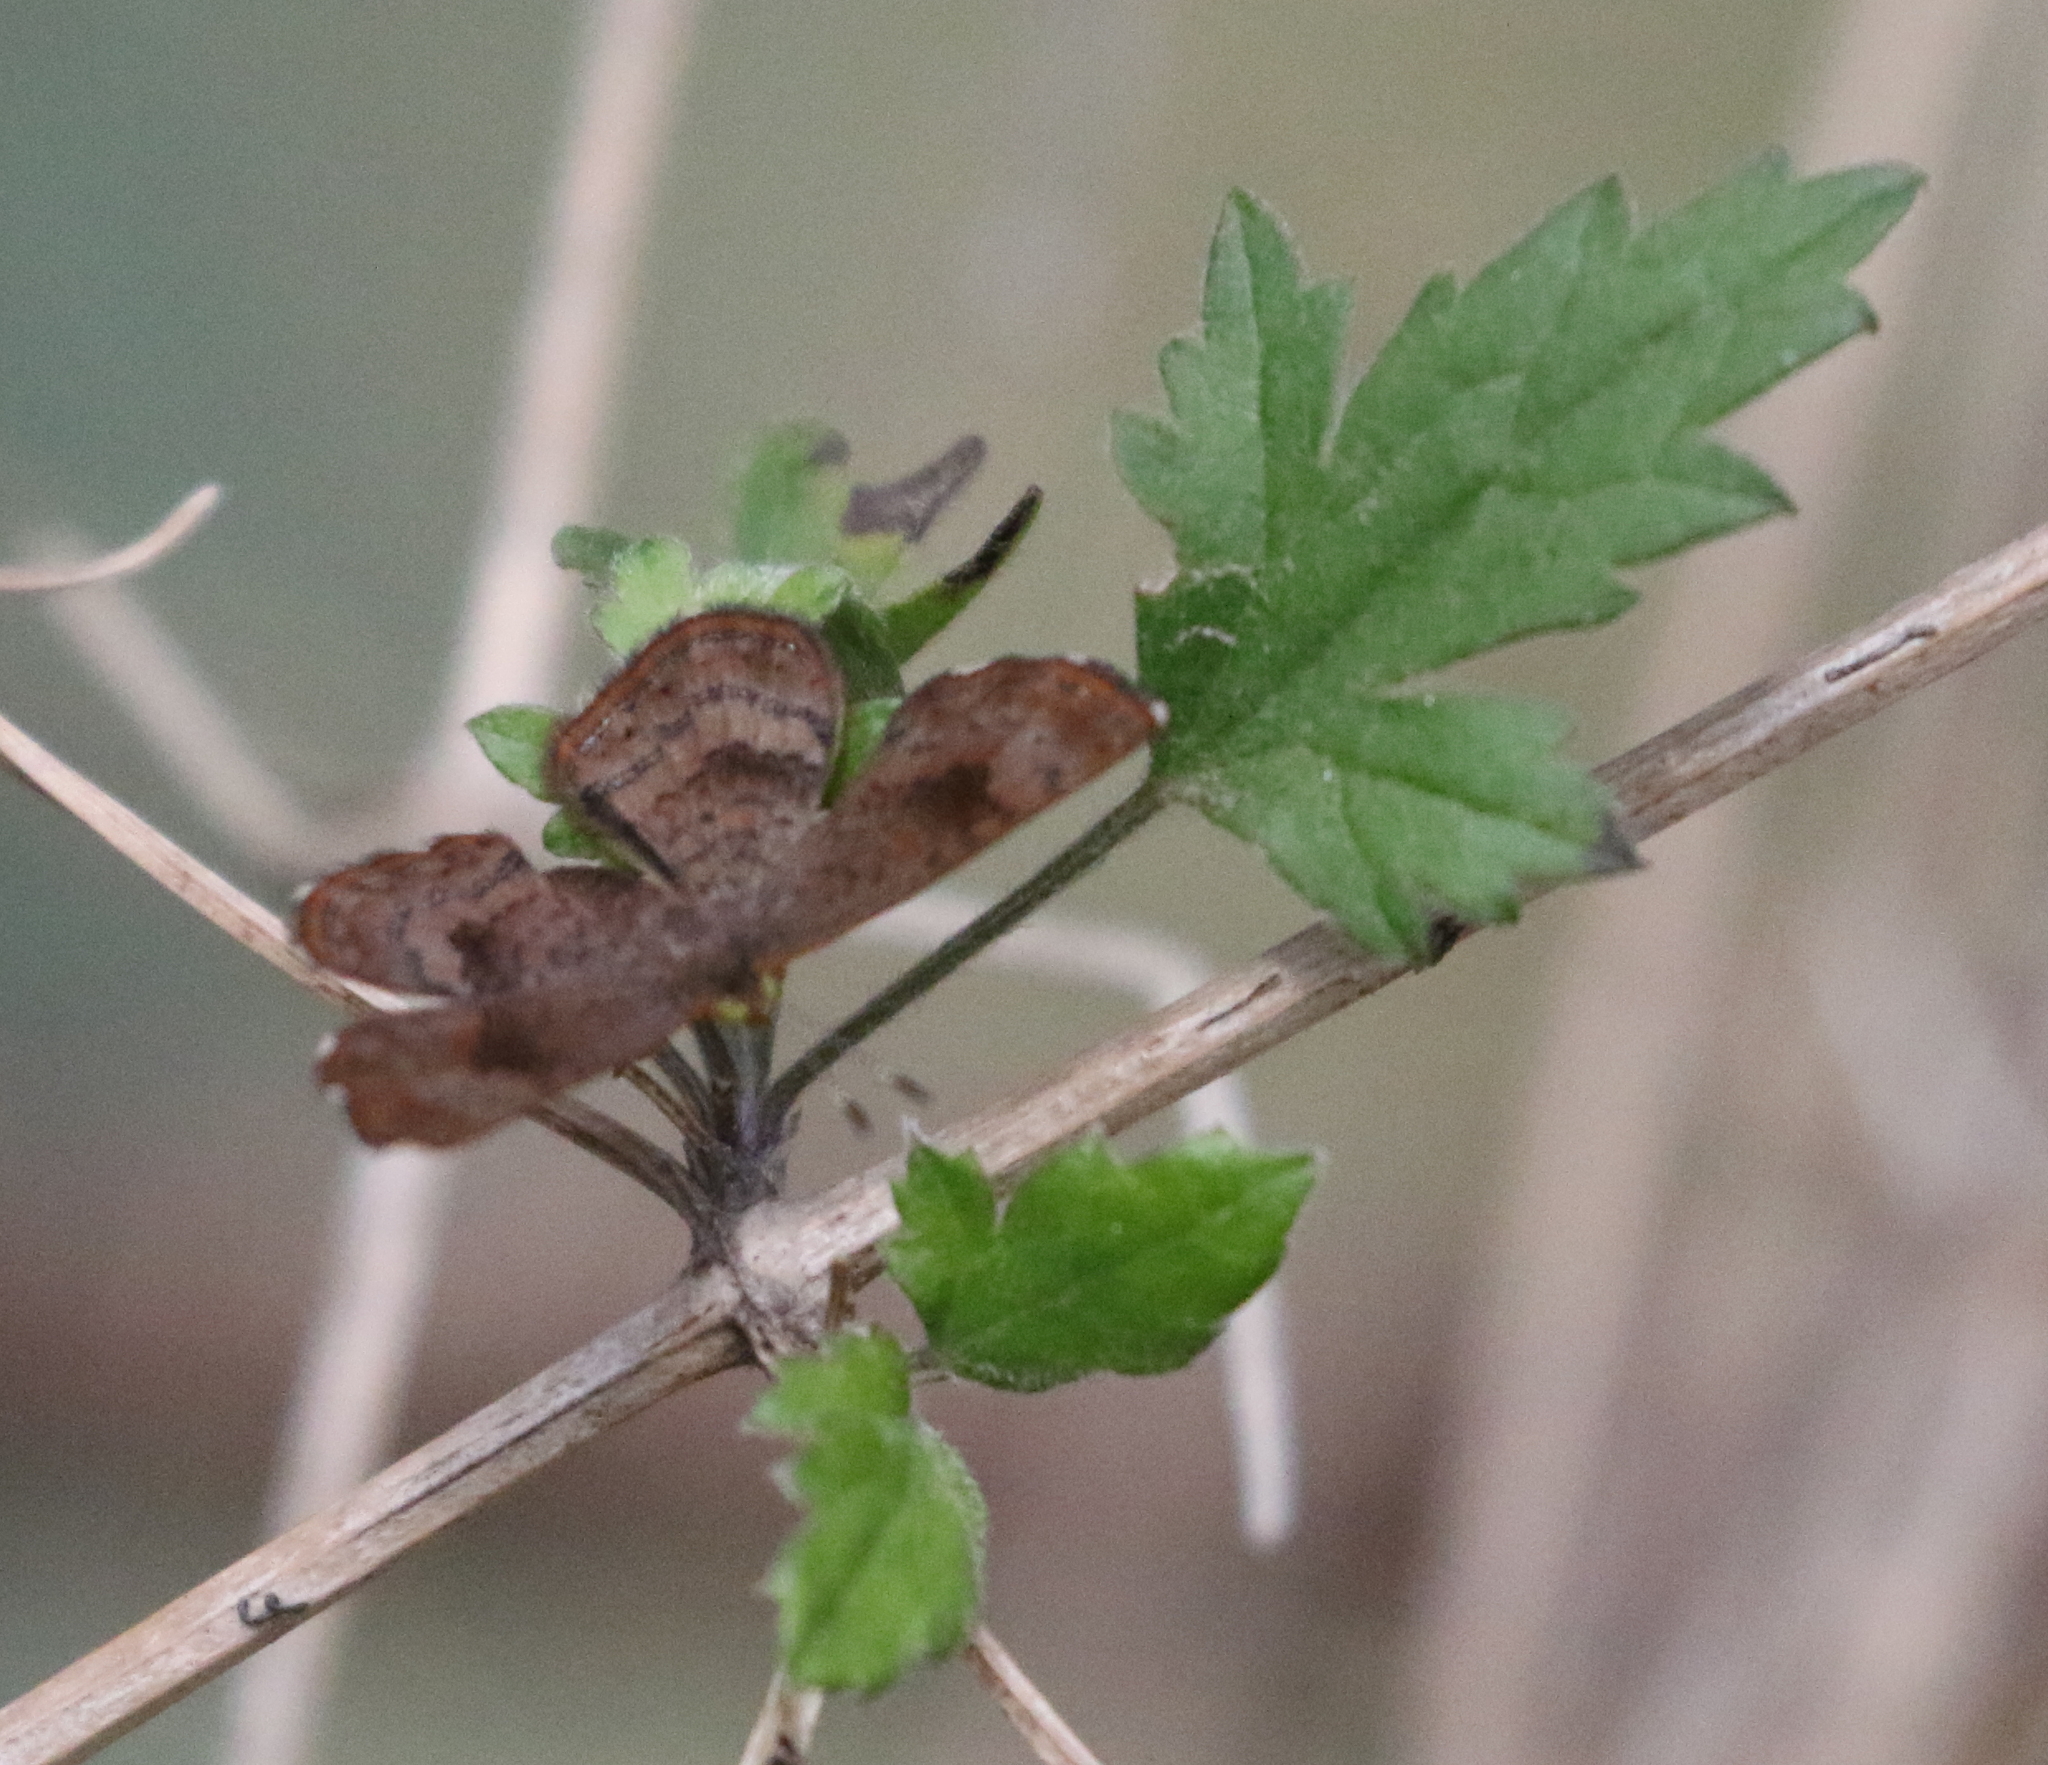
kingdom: Animalia
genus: Calephelis
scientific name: Calephelis nemesis
